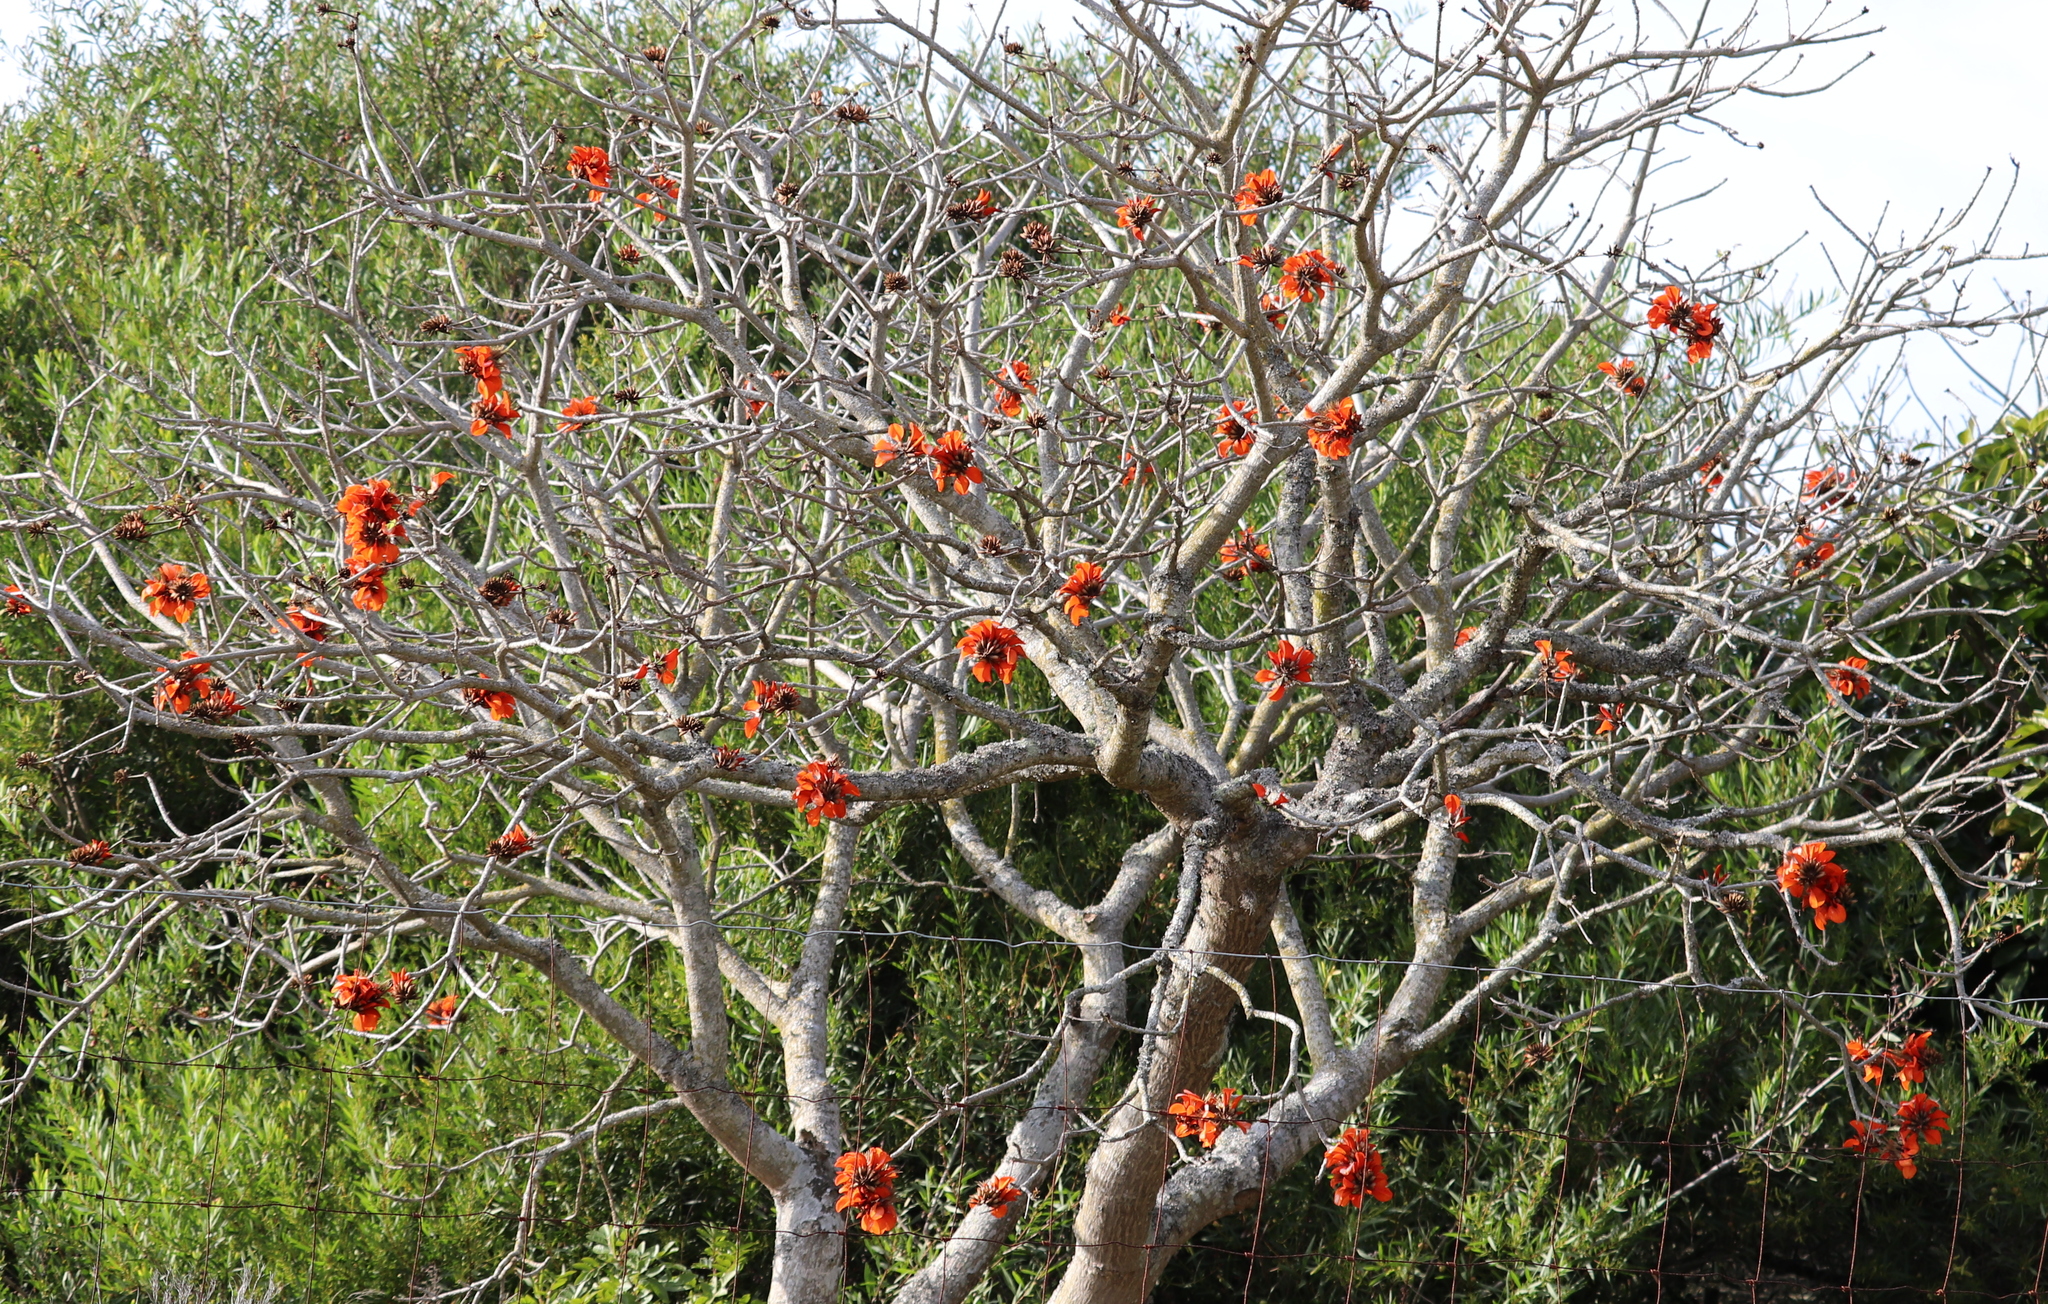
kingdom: Plantae
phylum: Tracheophyta
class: Magnoliopsida
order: Fabales
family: Fabaceae
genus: Erythrina
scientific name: Erythrina caffra
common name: Coast coral tree
